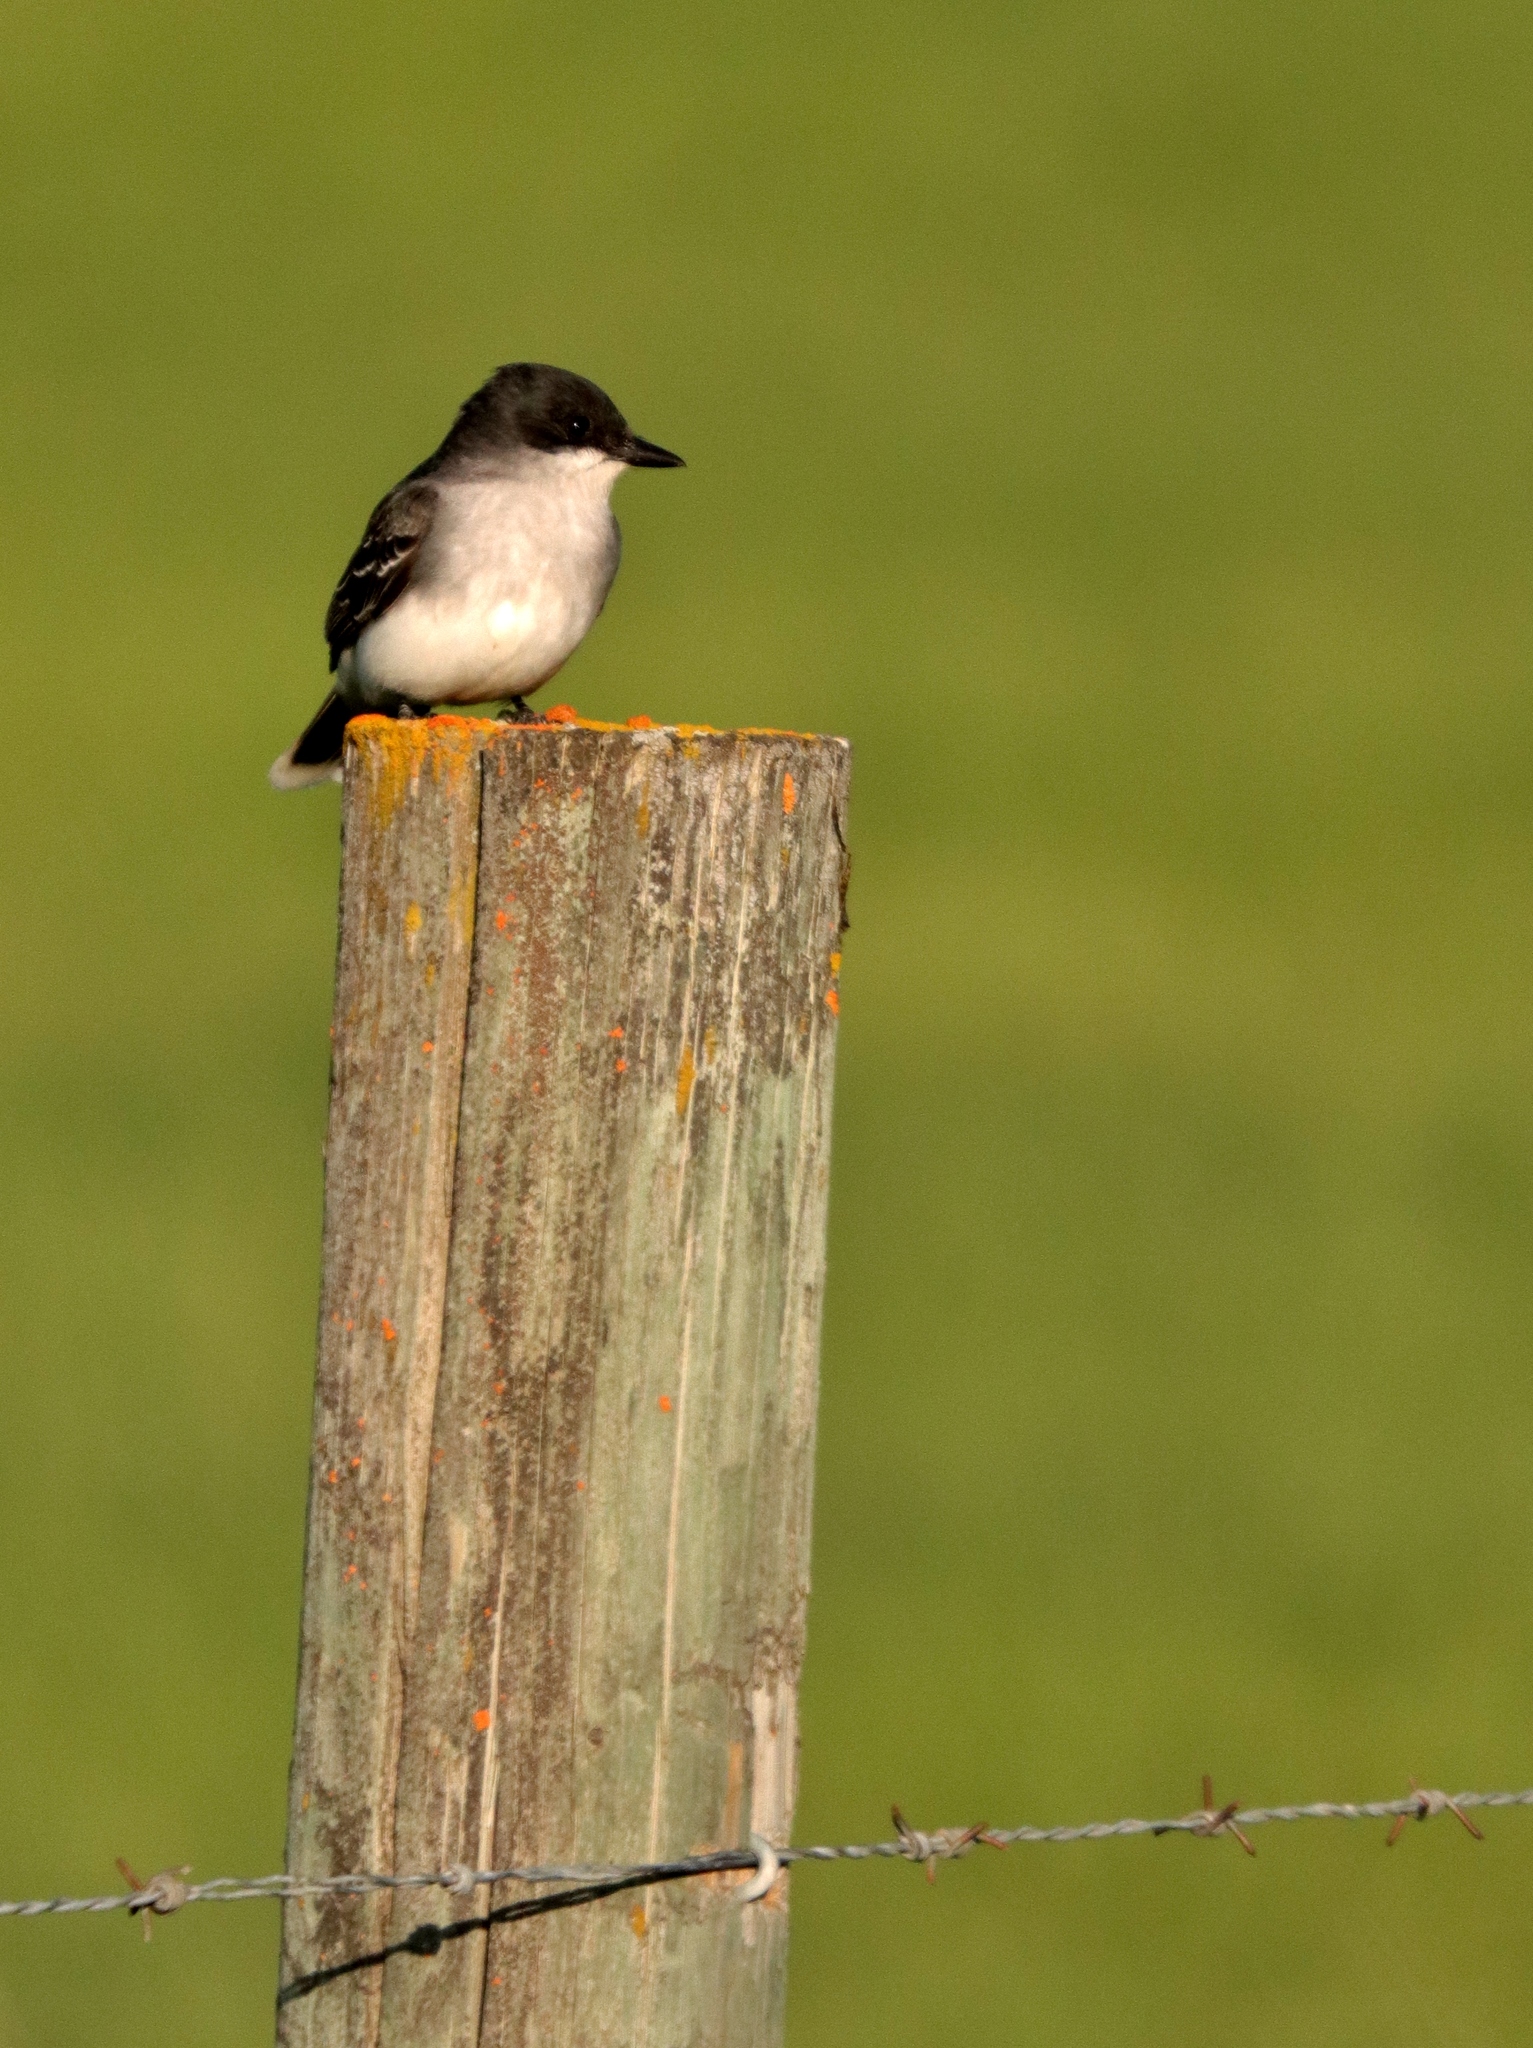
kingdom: Animalia
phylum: Chordata
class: Aves
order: Passeriformes
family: Tyrannidae
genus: Tyrannus
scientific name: Tyrannus tyrannus
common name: Eastern kingbird
